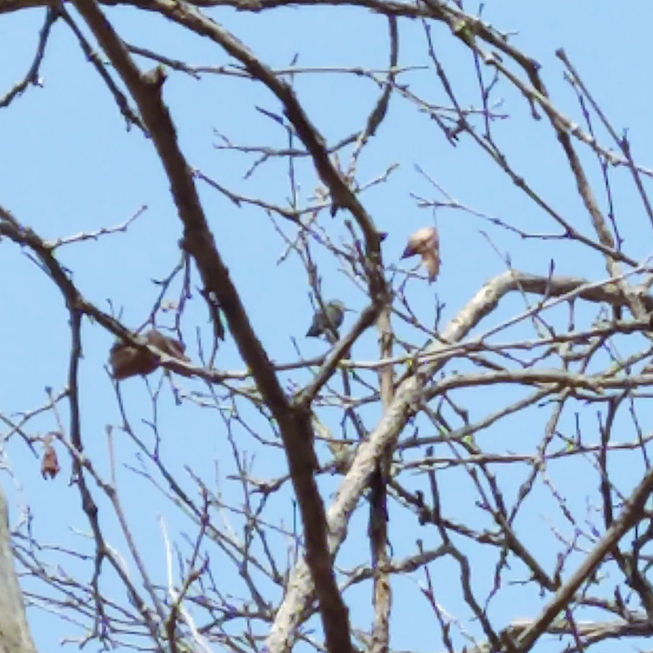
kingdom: Animalia
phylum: Chordata
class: Aves
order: Apodiformes
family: Trochilidae
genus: Calypte
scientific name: Calypte anna
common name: Anna's hummingbird
